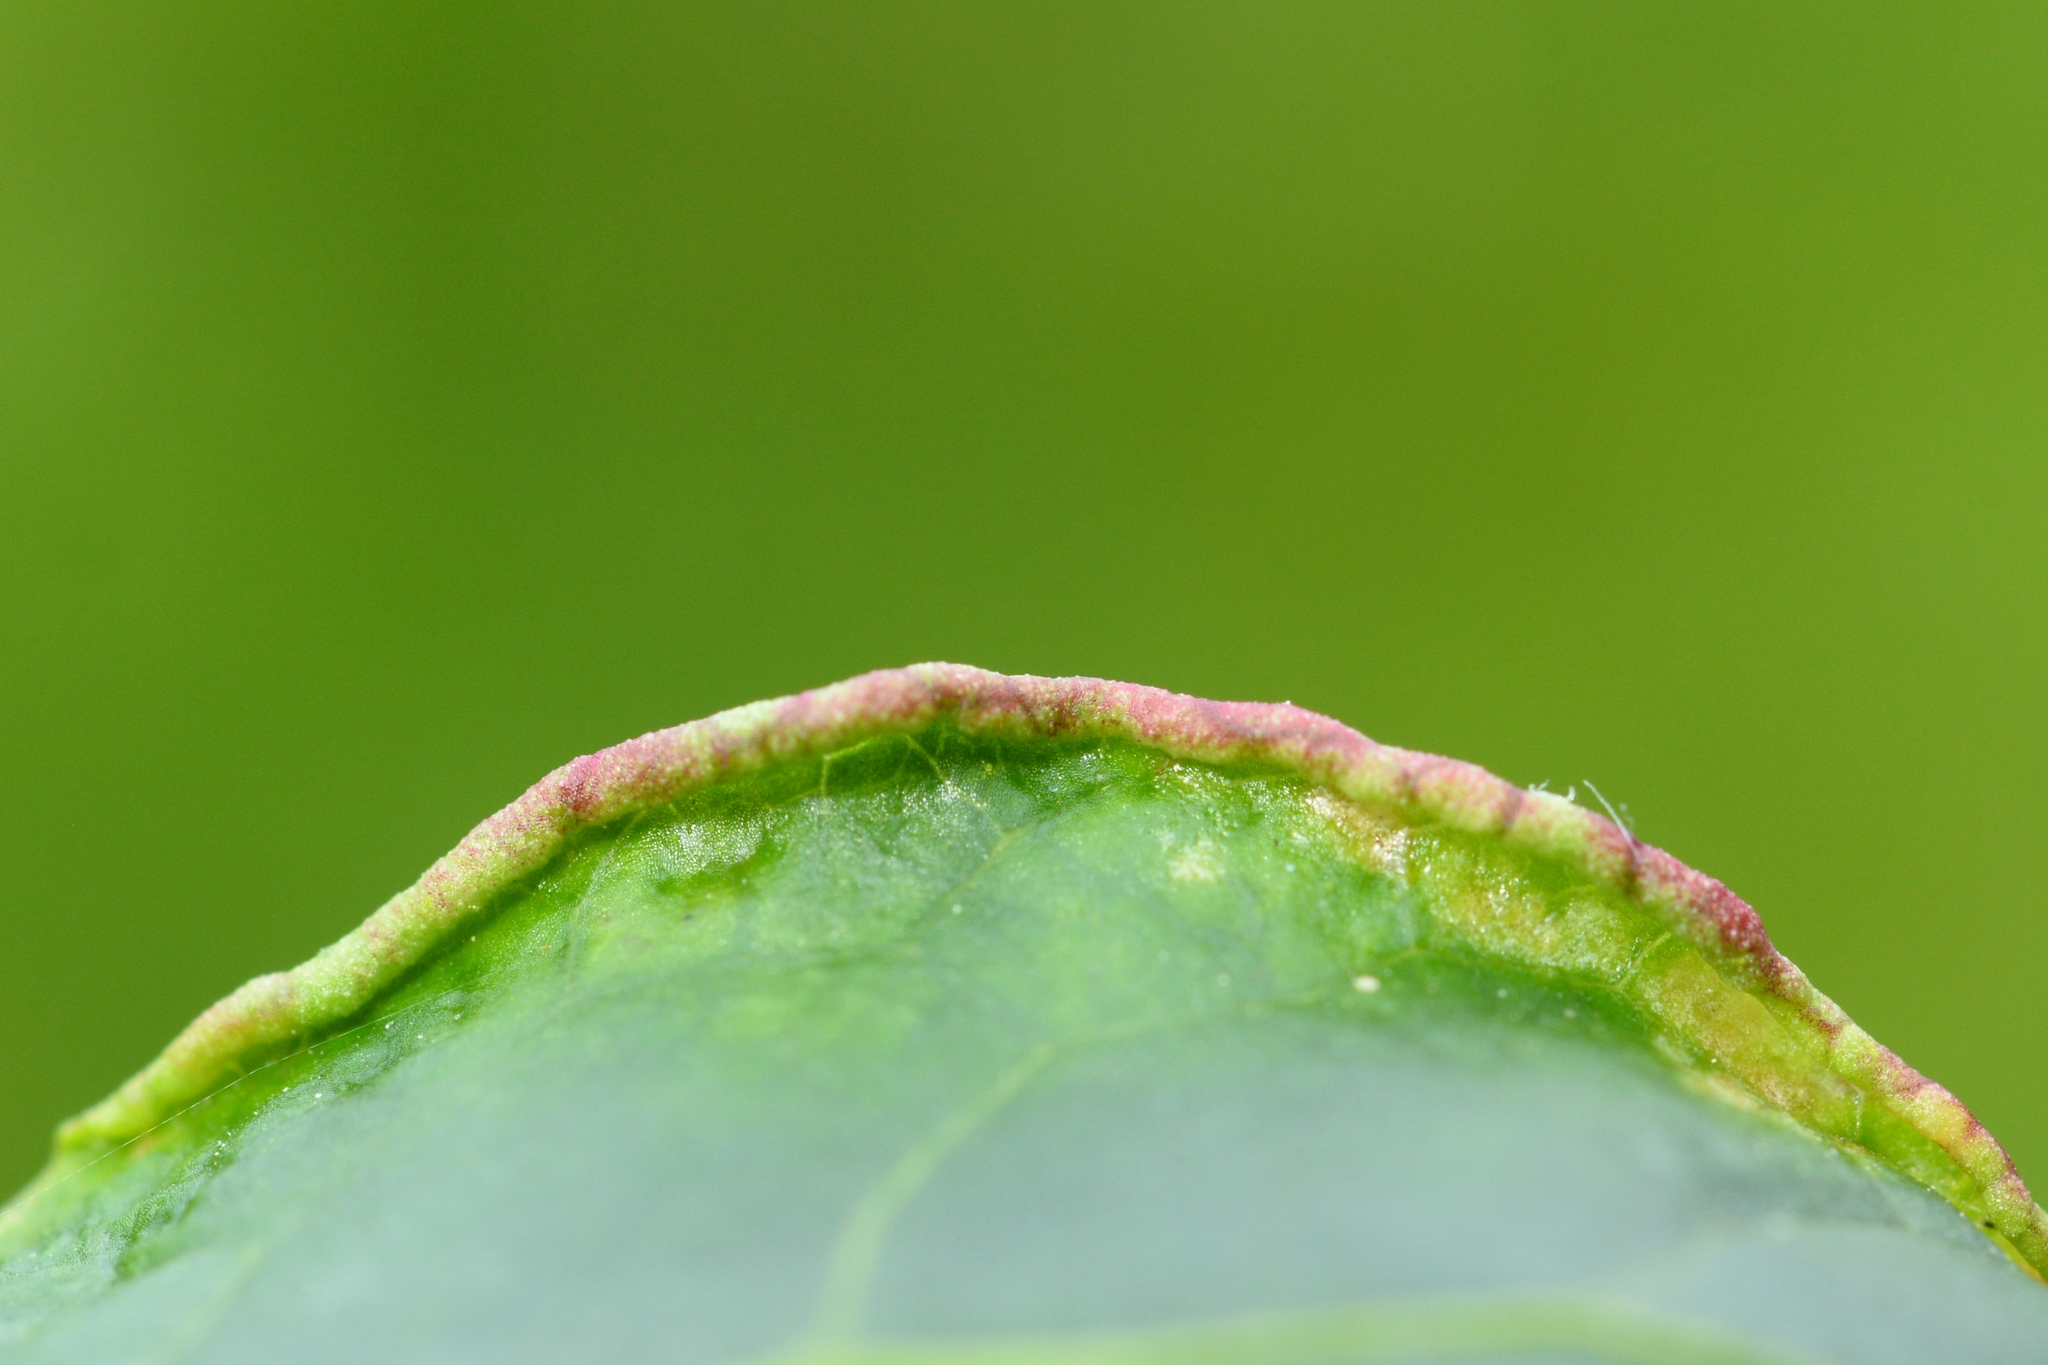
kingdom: Animalia
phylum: Arthropoda
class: Arachnida
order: Trombidiformes
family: Eriophyidae
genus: Stenacis
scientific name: Stenacis evonymi
